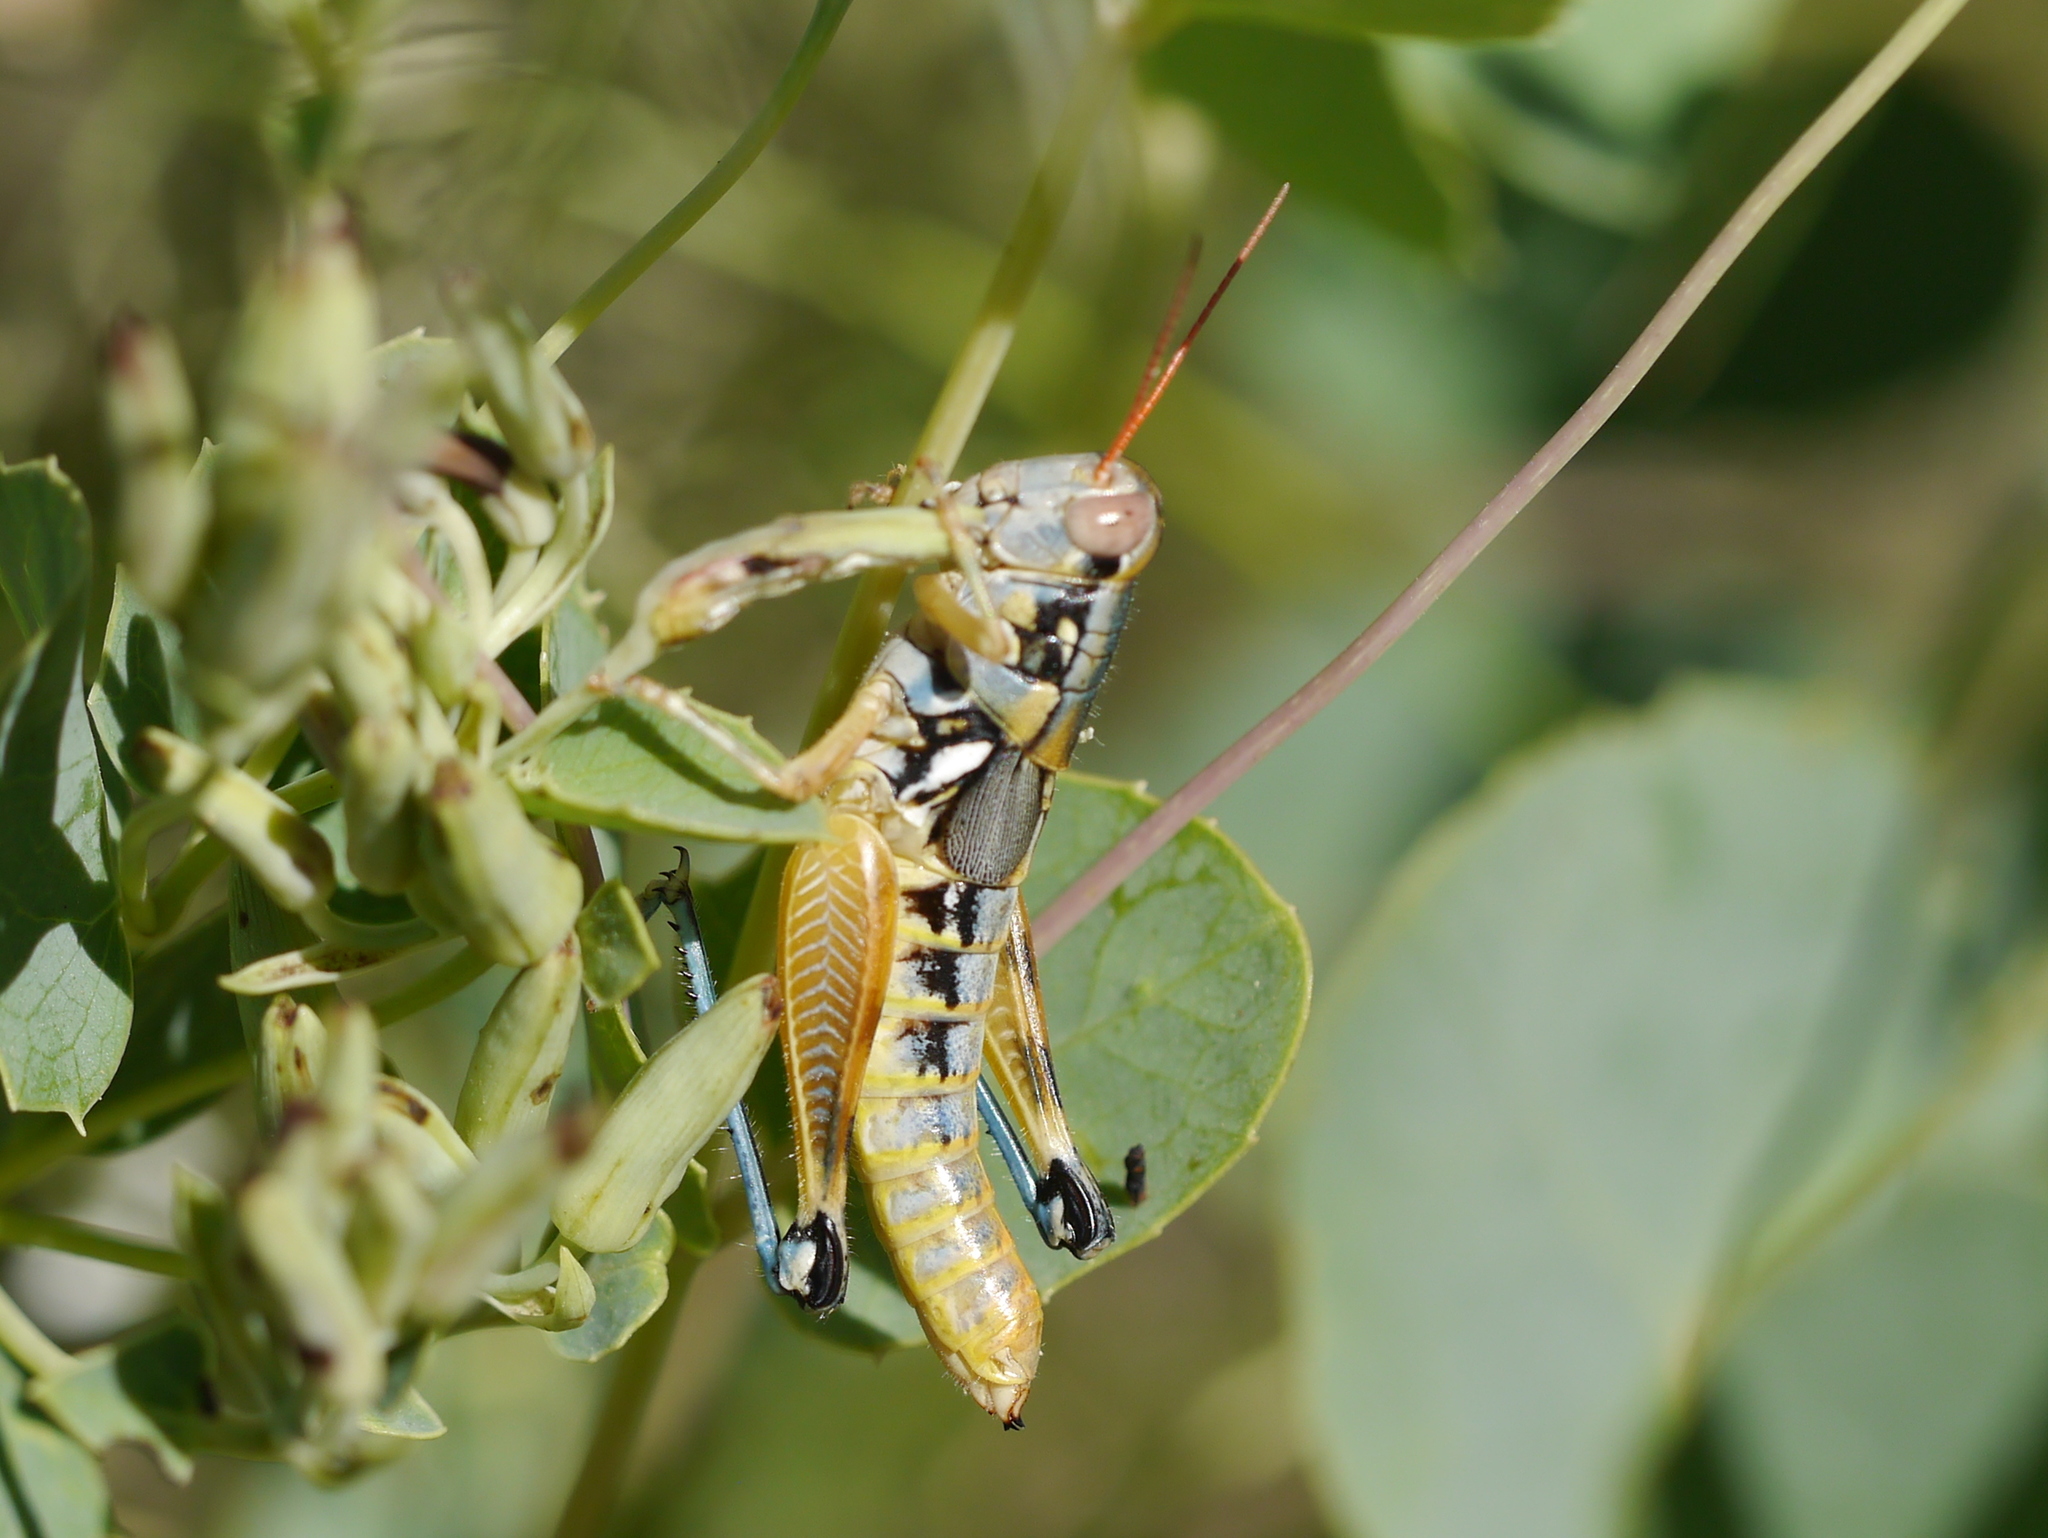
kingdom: Animalia
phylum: Arthropoda
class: Insecta
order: Orthoptera
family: Acrididae
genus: Melanoplus
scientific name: Melanoplus aridus
